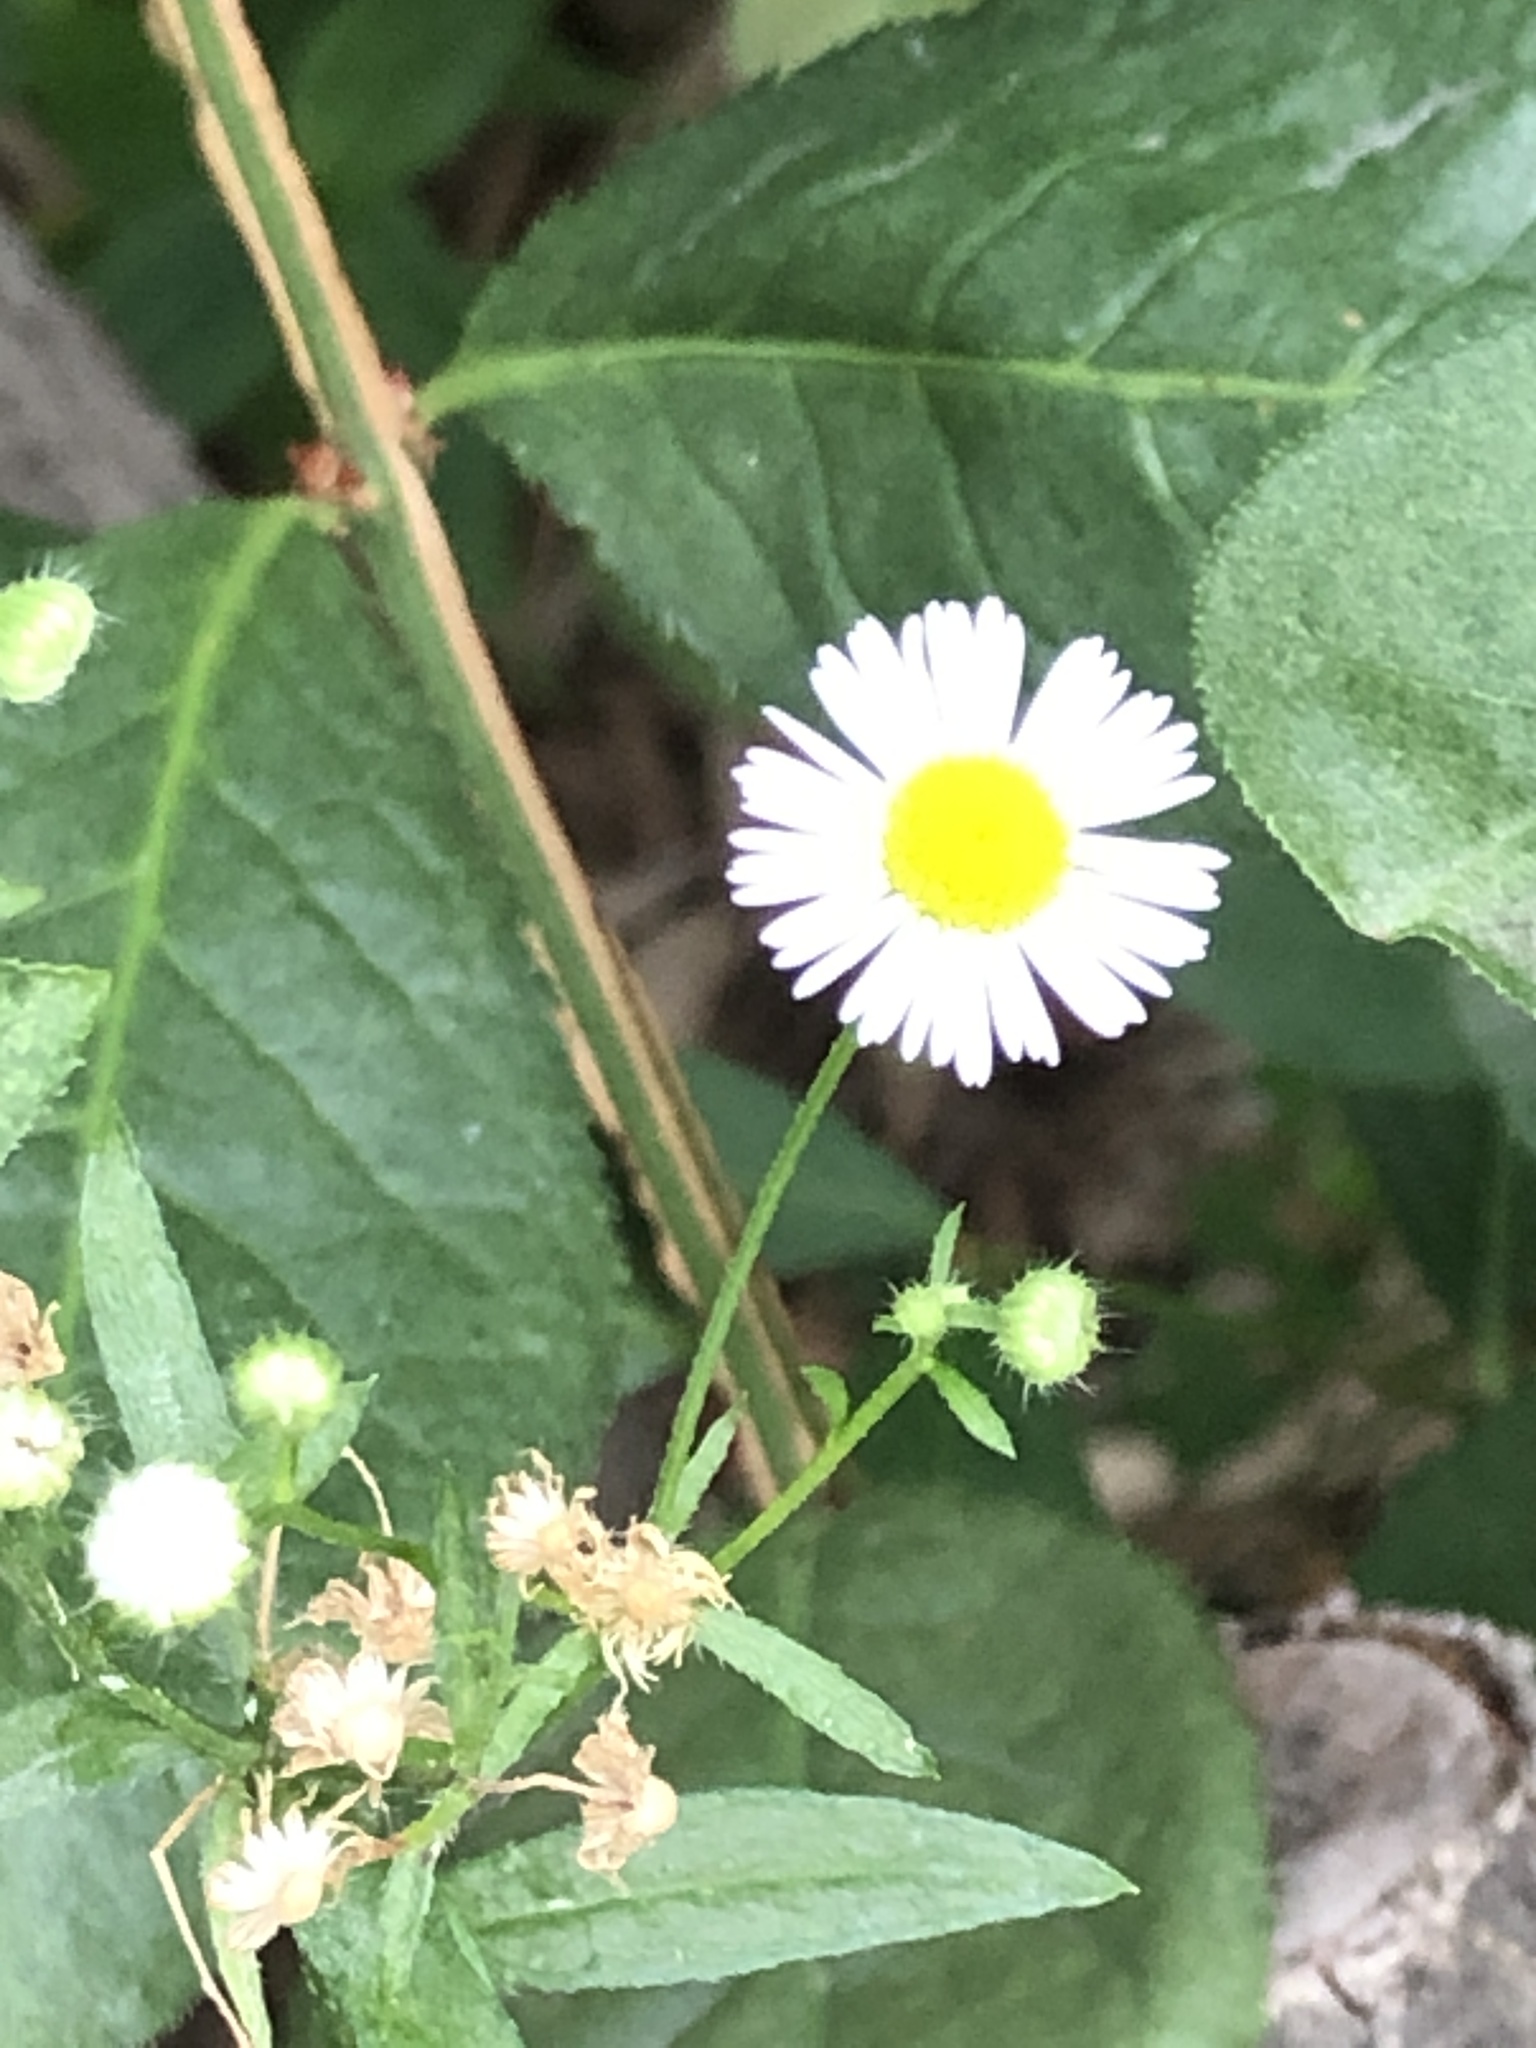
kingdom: Plantae
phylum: Tracheophyta
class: Magnoliopsida
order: Asterales
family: Asteraceae
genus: Erigeron
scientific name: Erigeron annuus
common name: Tall fleabane
